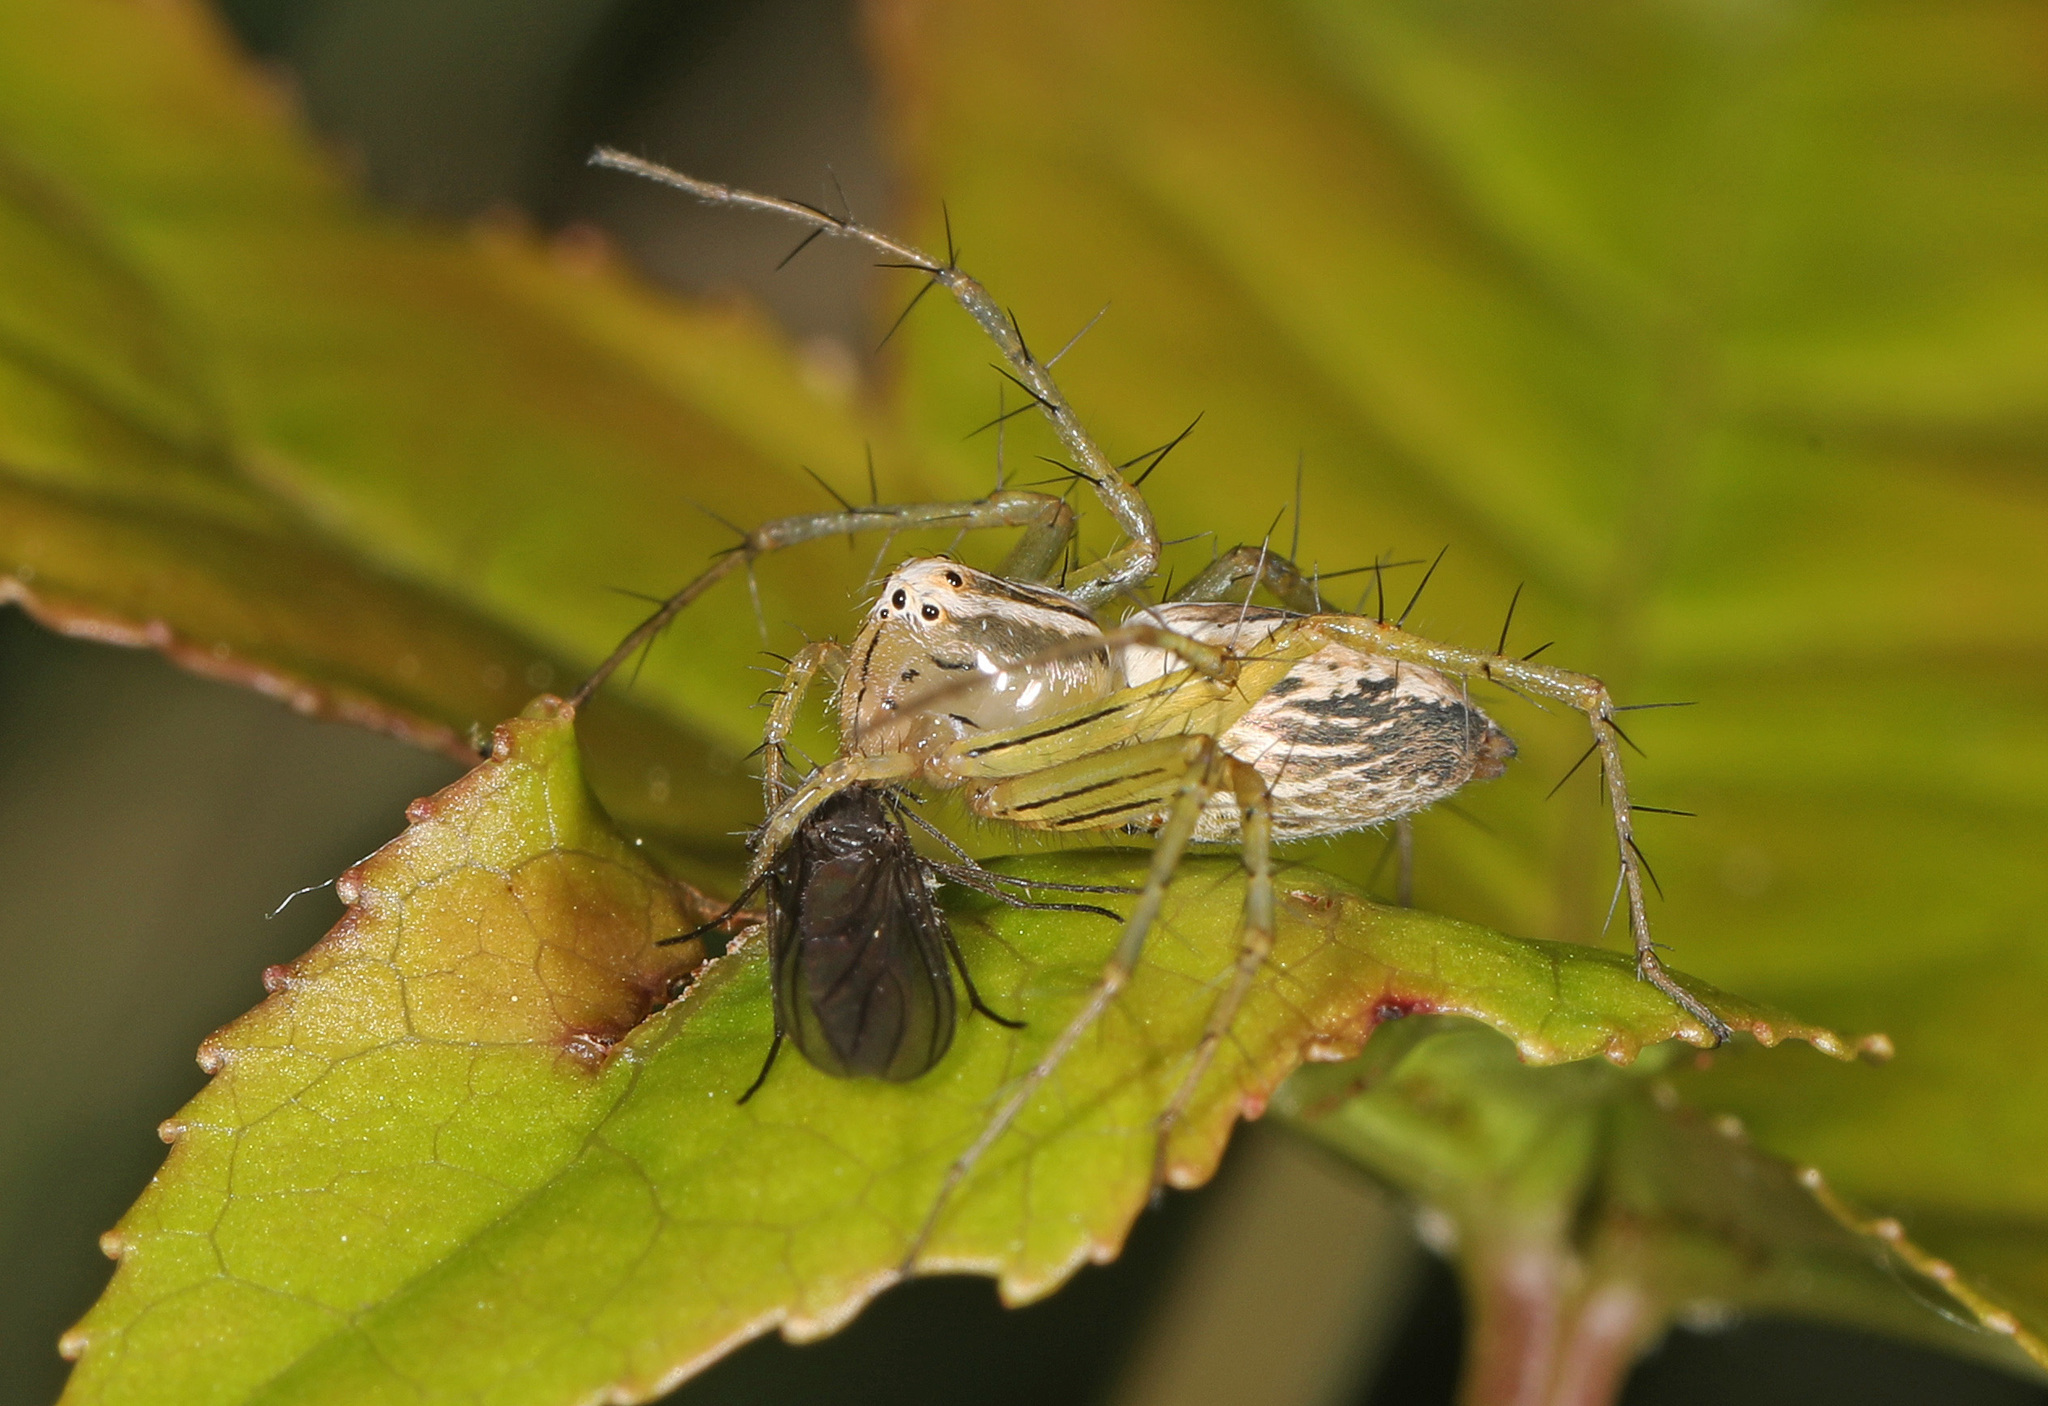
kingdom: Animalia
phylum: Arthropoda
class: Arachnida
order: Araneae
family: Oxyopidae
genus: Oxyopes
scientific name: Oxyopes salticus
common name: Lynx spiders
